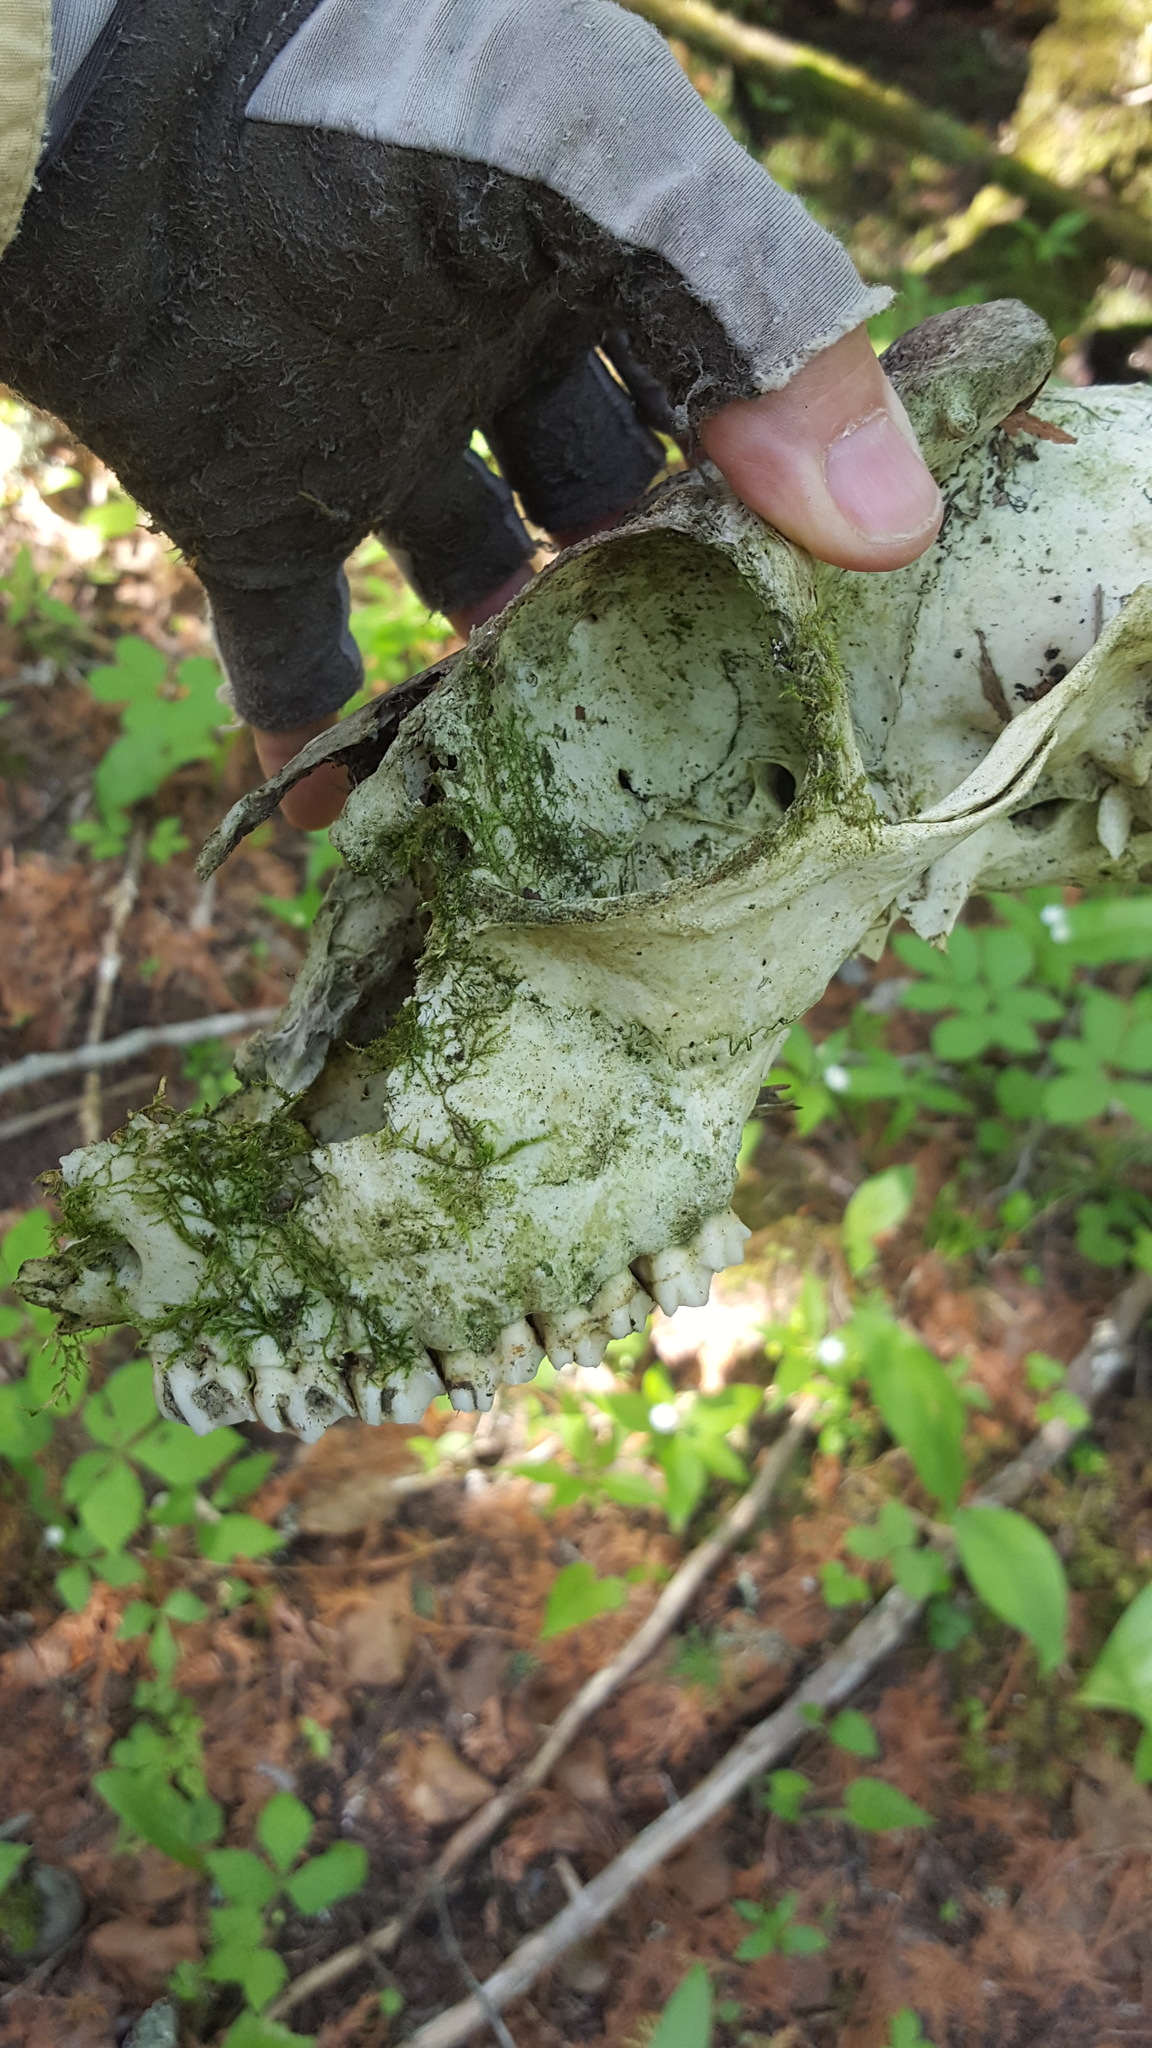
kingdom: Animalia
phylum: Chordata
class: Mammalia
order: Artiodactyla
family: Cervidae
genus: Odocoileus
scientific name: Odocoileus virginianus
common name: White-tailed deer
